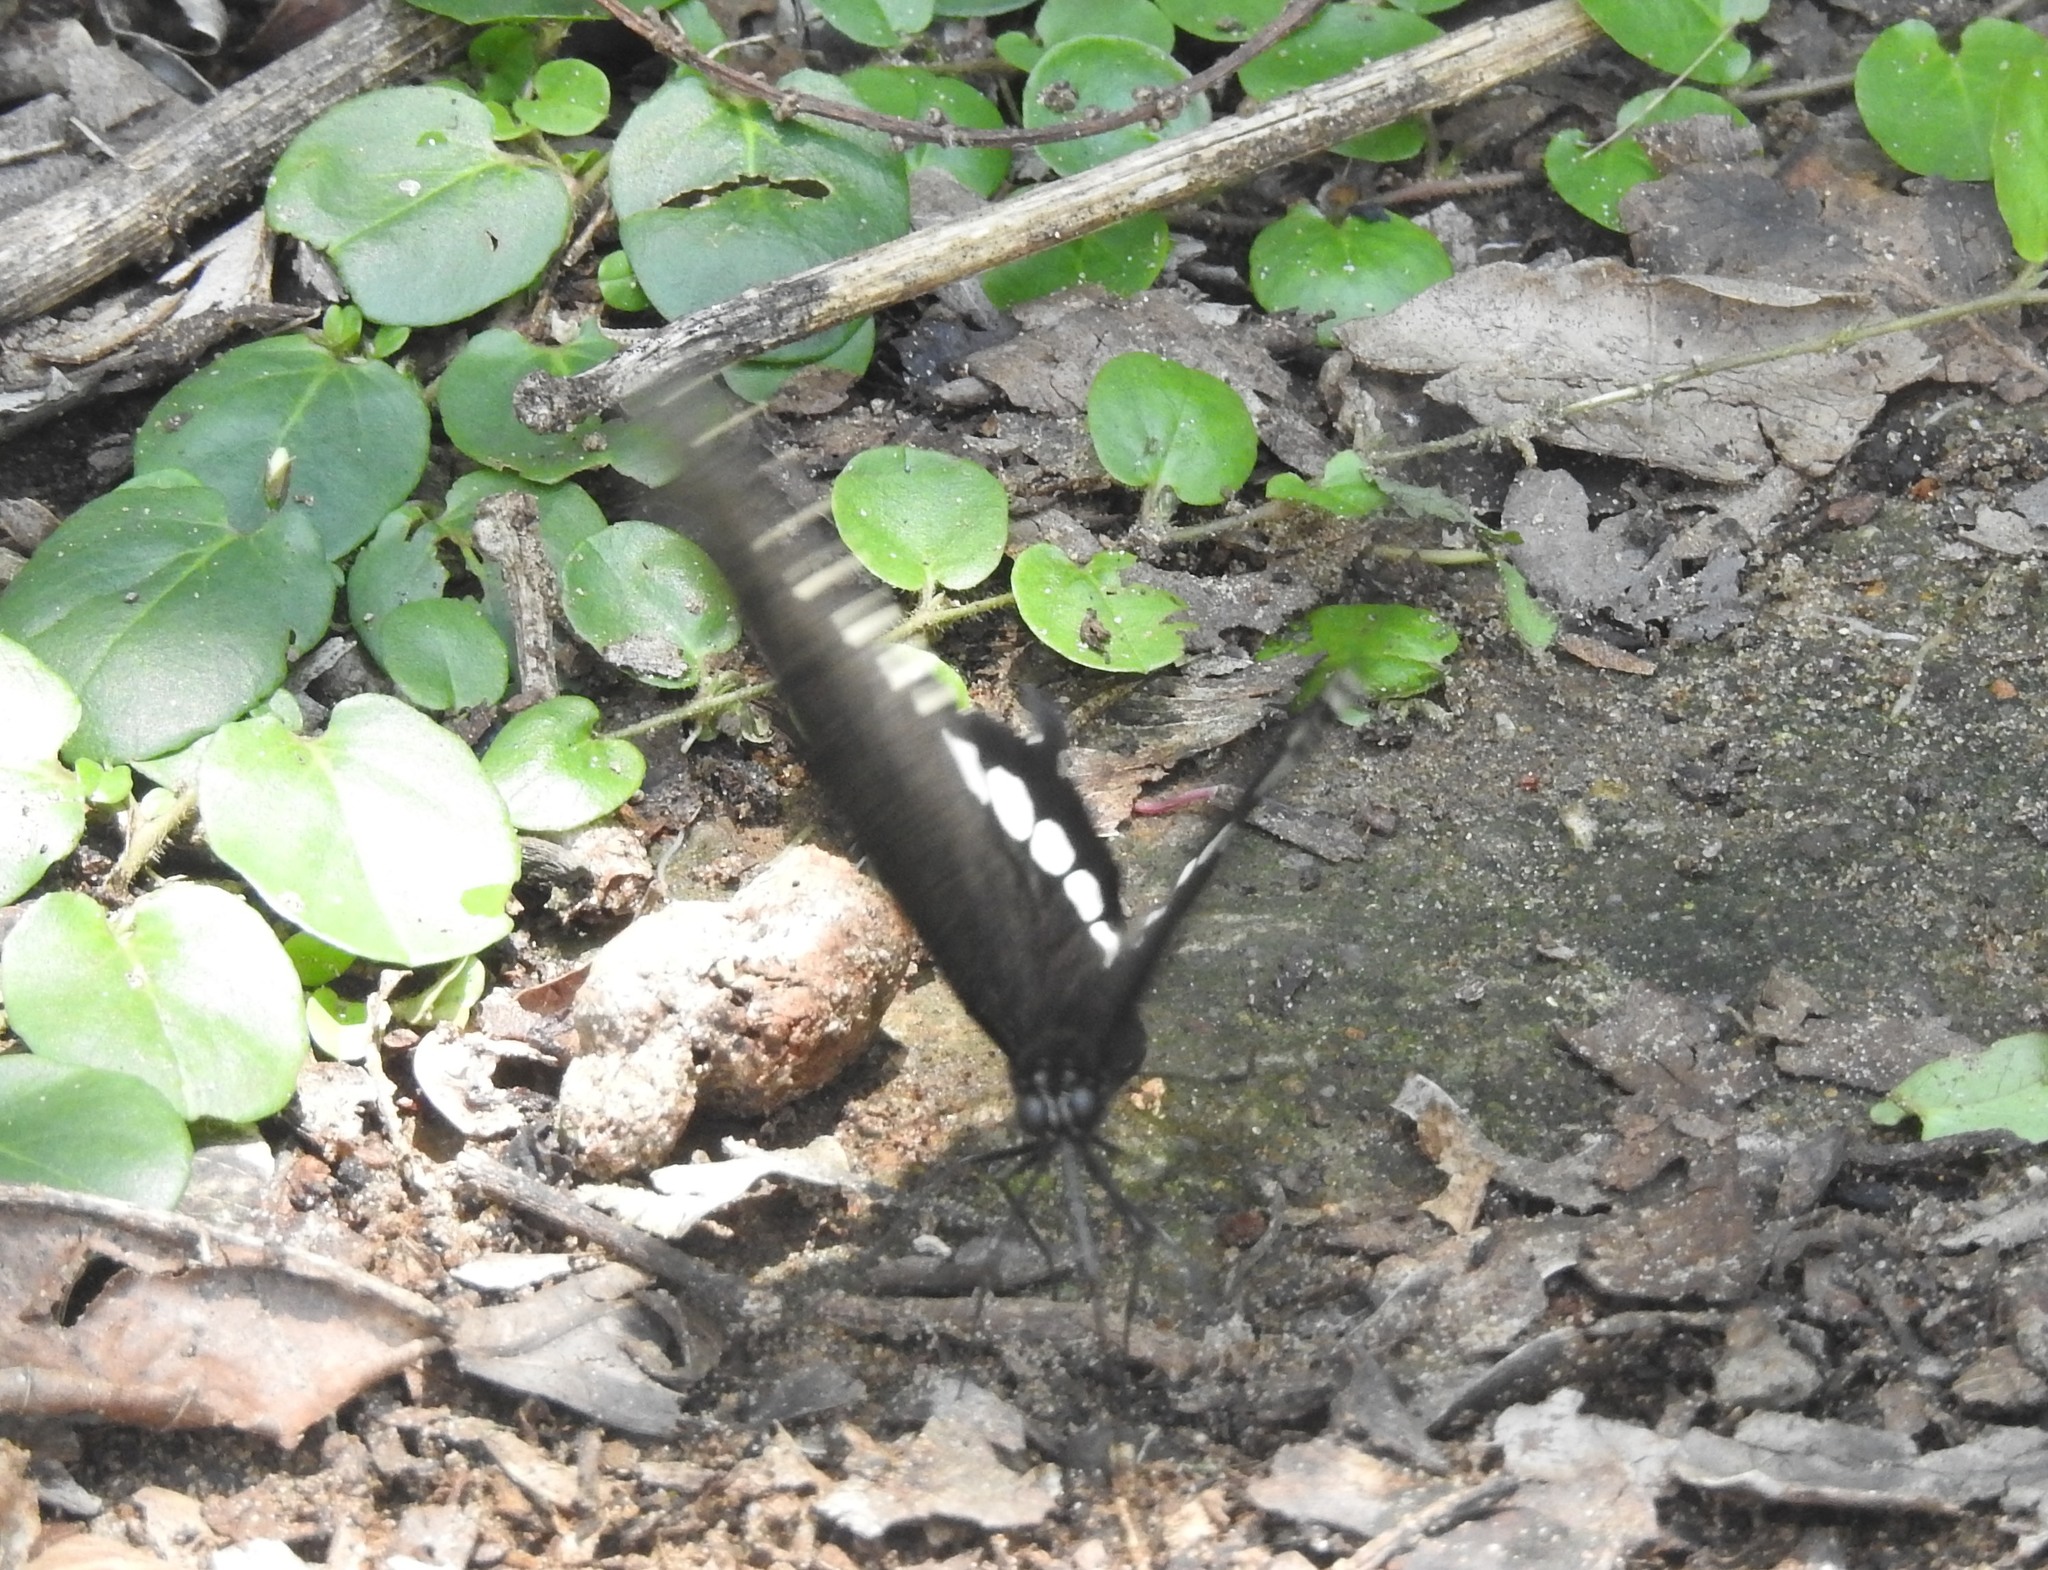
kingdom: Animalia
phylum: Arthropoda
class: Insecta
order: Lepidoptera
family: Papilionidae
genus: Papilio
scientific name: Papilio polytes
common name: Common mormon
